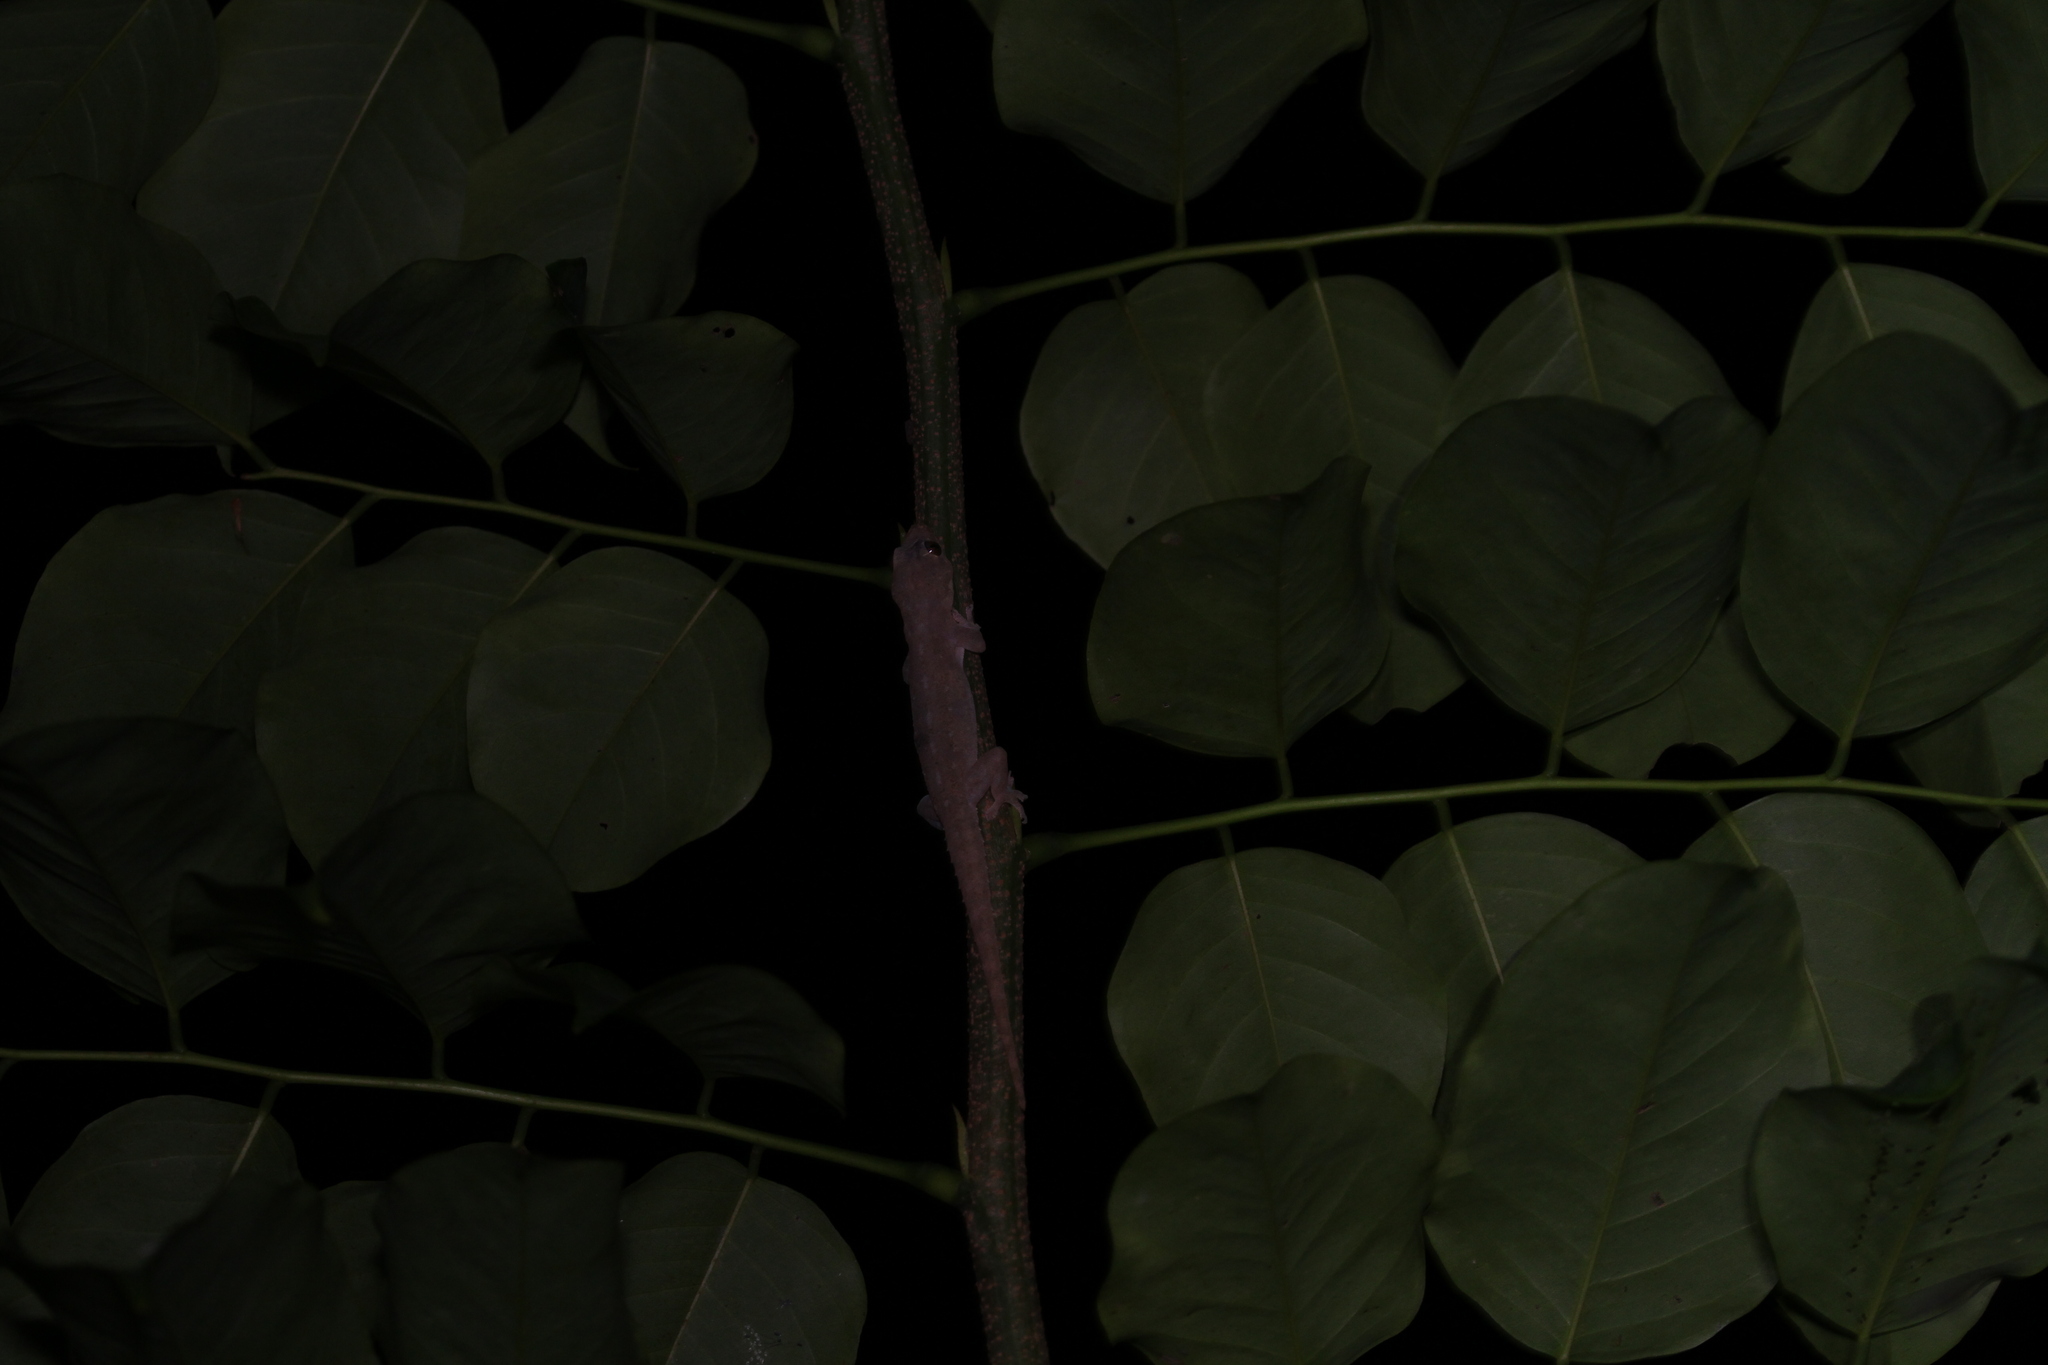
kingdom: Animalia
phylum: Chordata
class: Squamata
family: Gekkonidae
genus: Hemidactylus
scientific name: Hemidactylus frenatus
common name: Common house gecko
